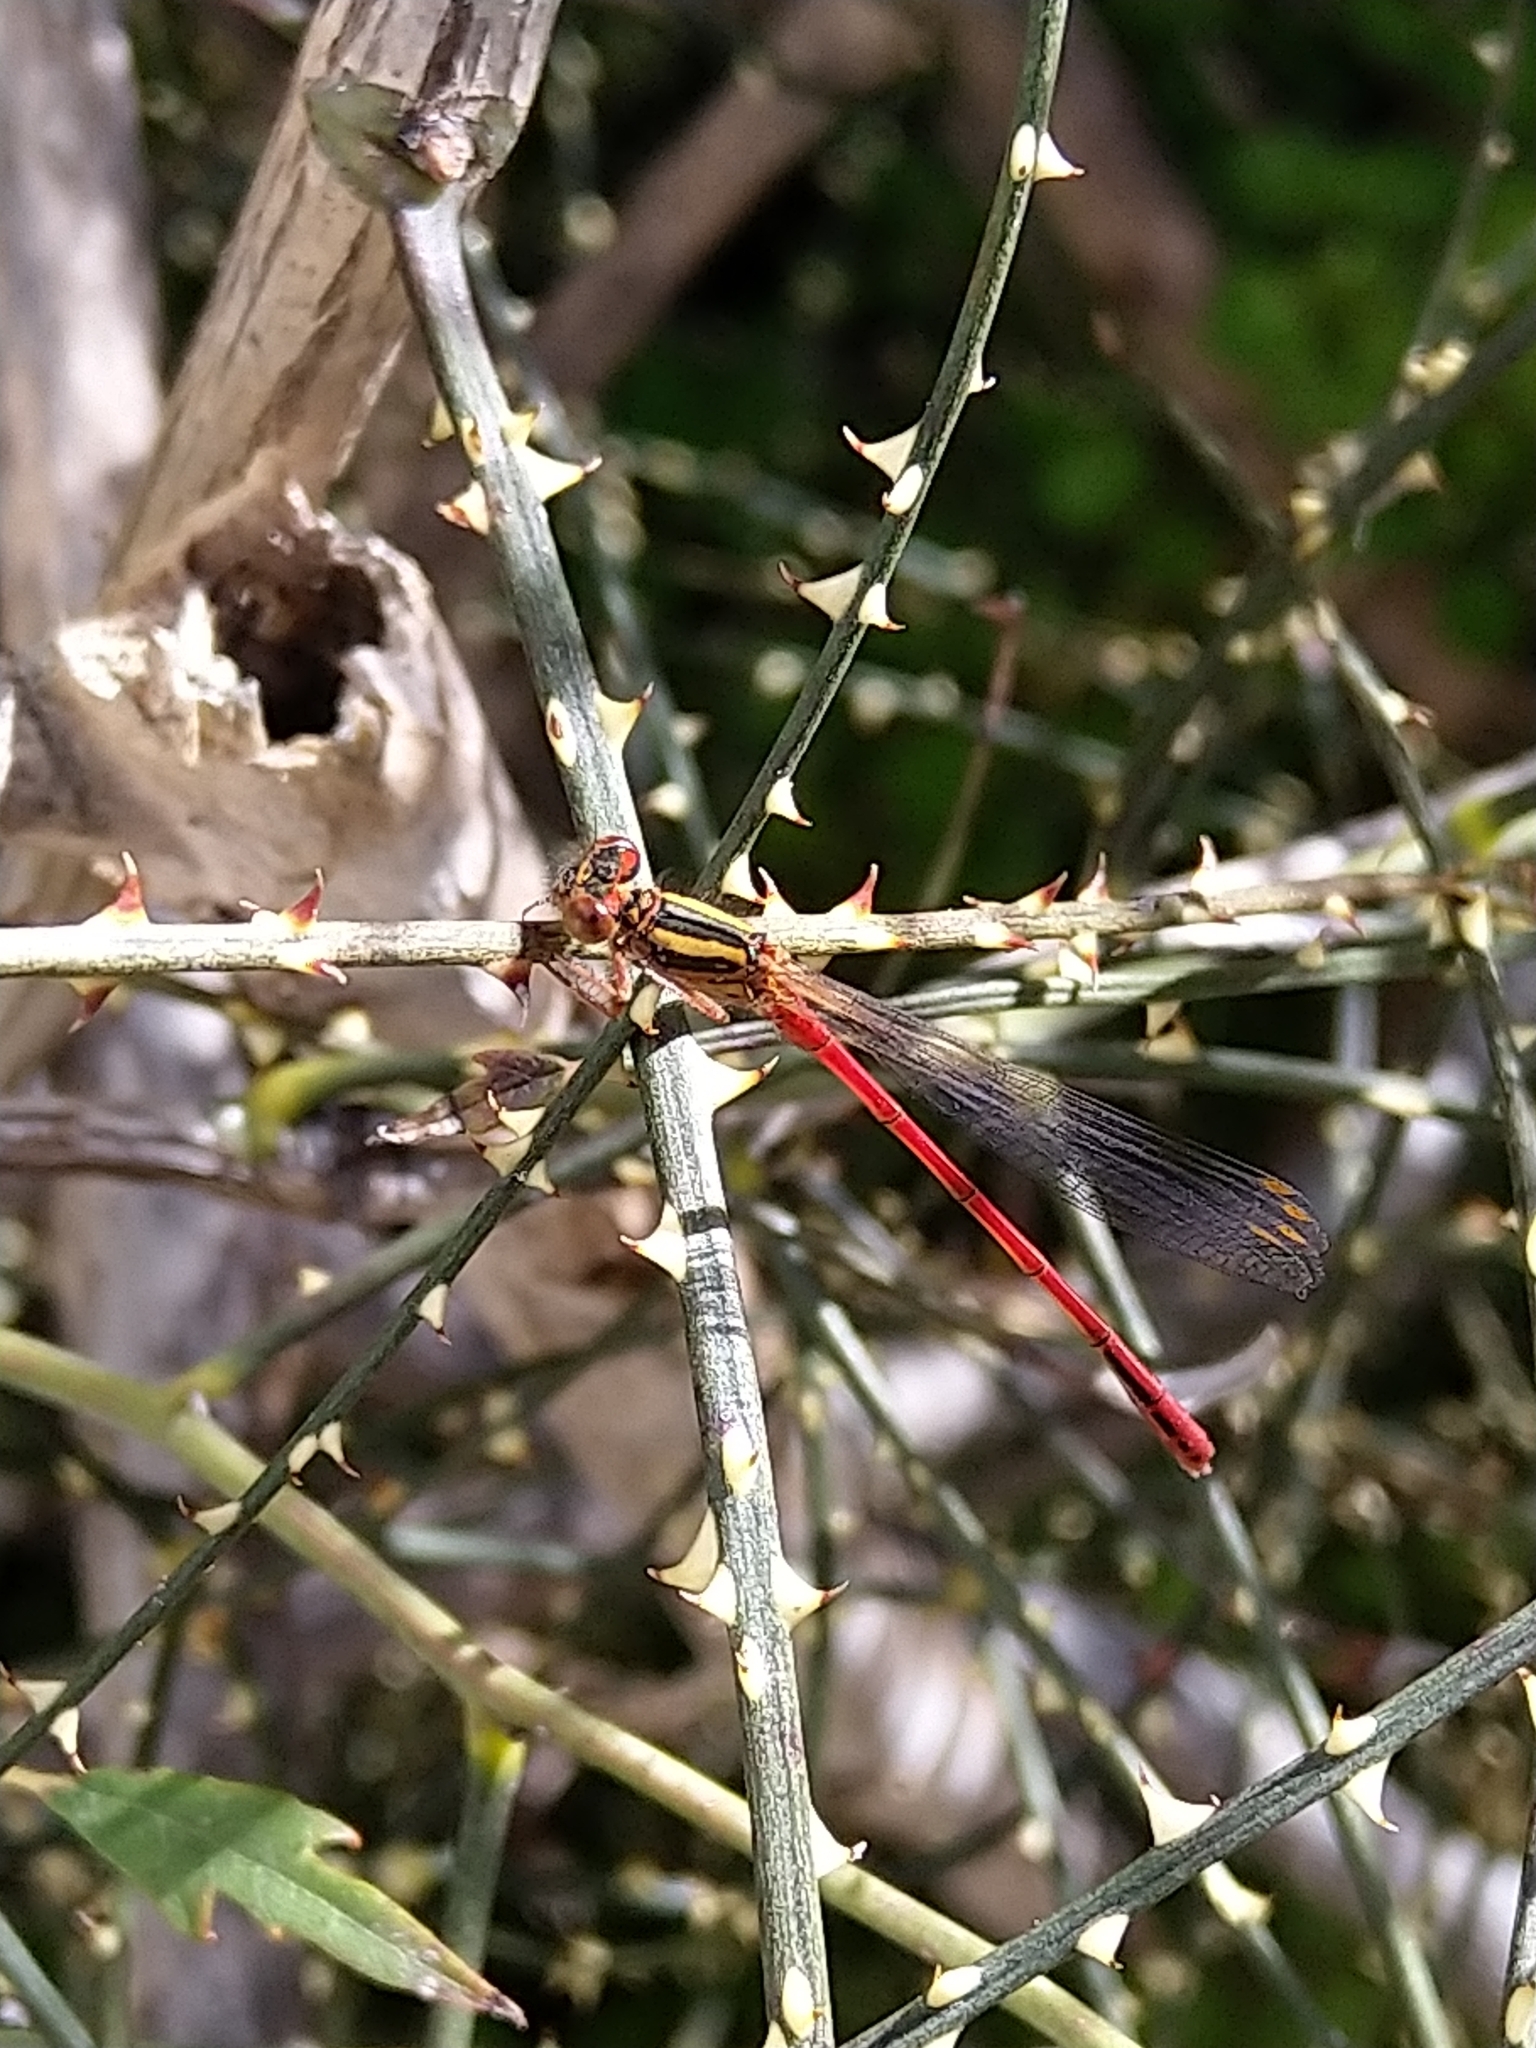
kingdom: Animalia
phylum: Arthropoda
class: Insecta
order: Odonata
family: Coenagrionidae
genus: Xanthocnemis
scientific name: Xanthocnemis zealandica
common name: Common redcoat damselfly
